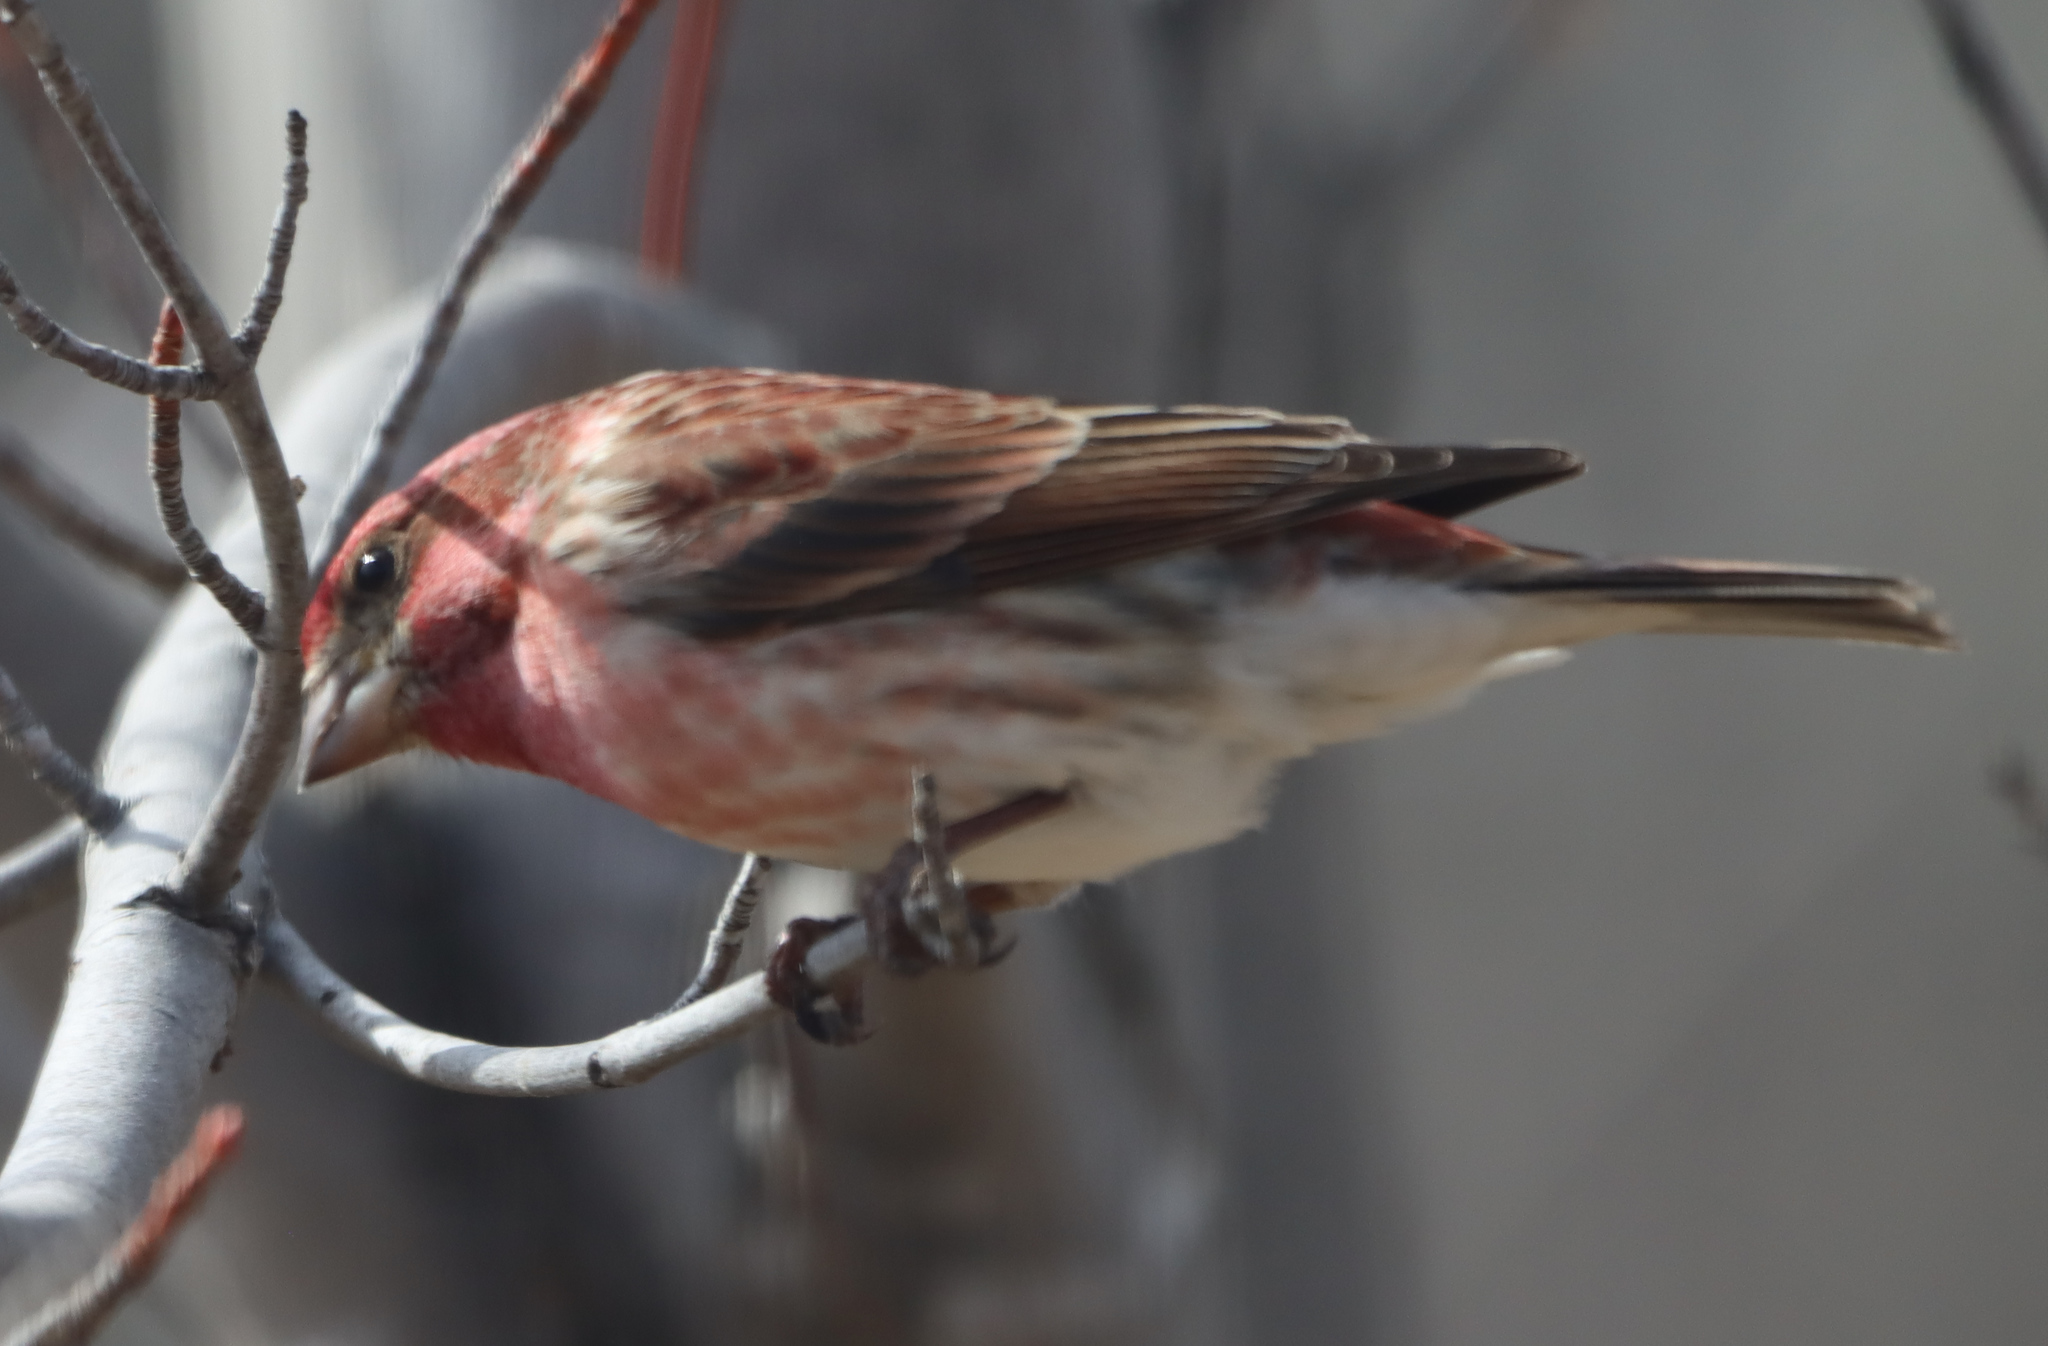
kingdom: Animalia
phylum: Chordata
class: Aves
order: Passeriformes
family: Fringillidae
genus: Haemorhous
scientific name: Haemorhous purpureus
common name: Purple finch
